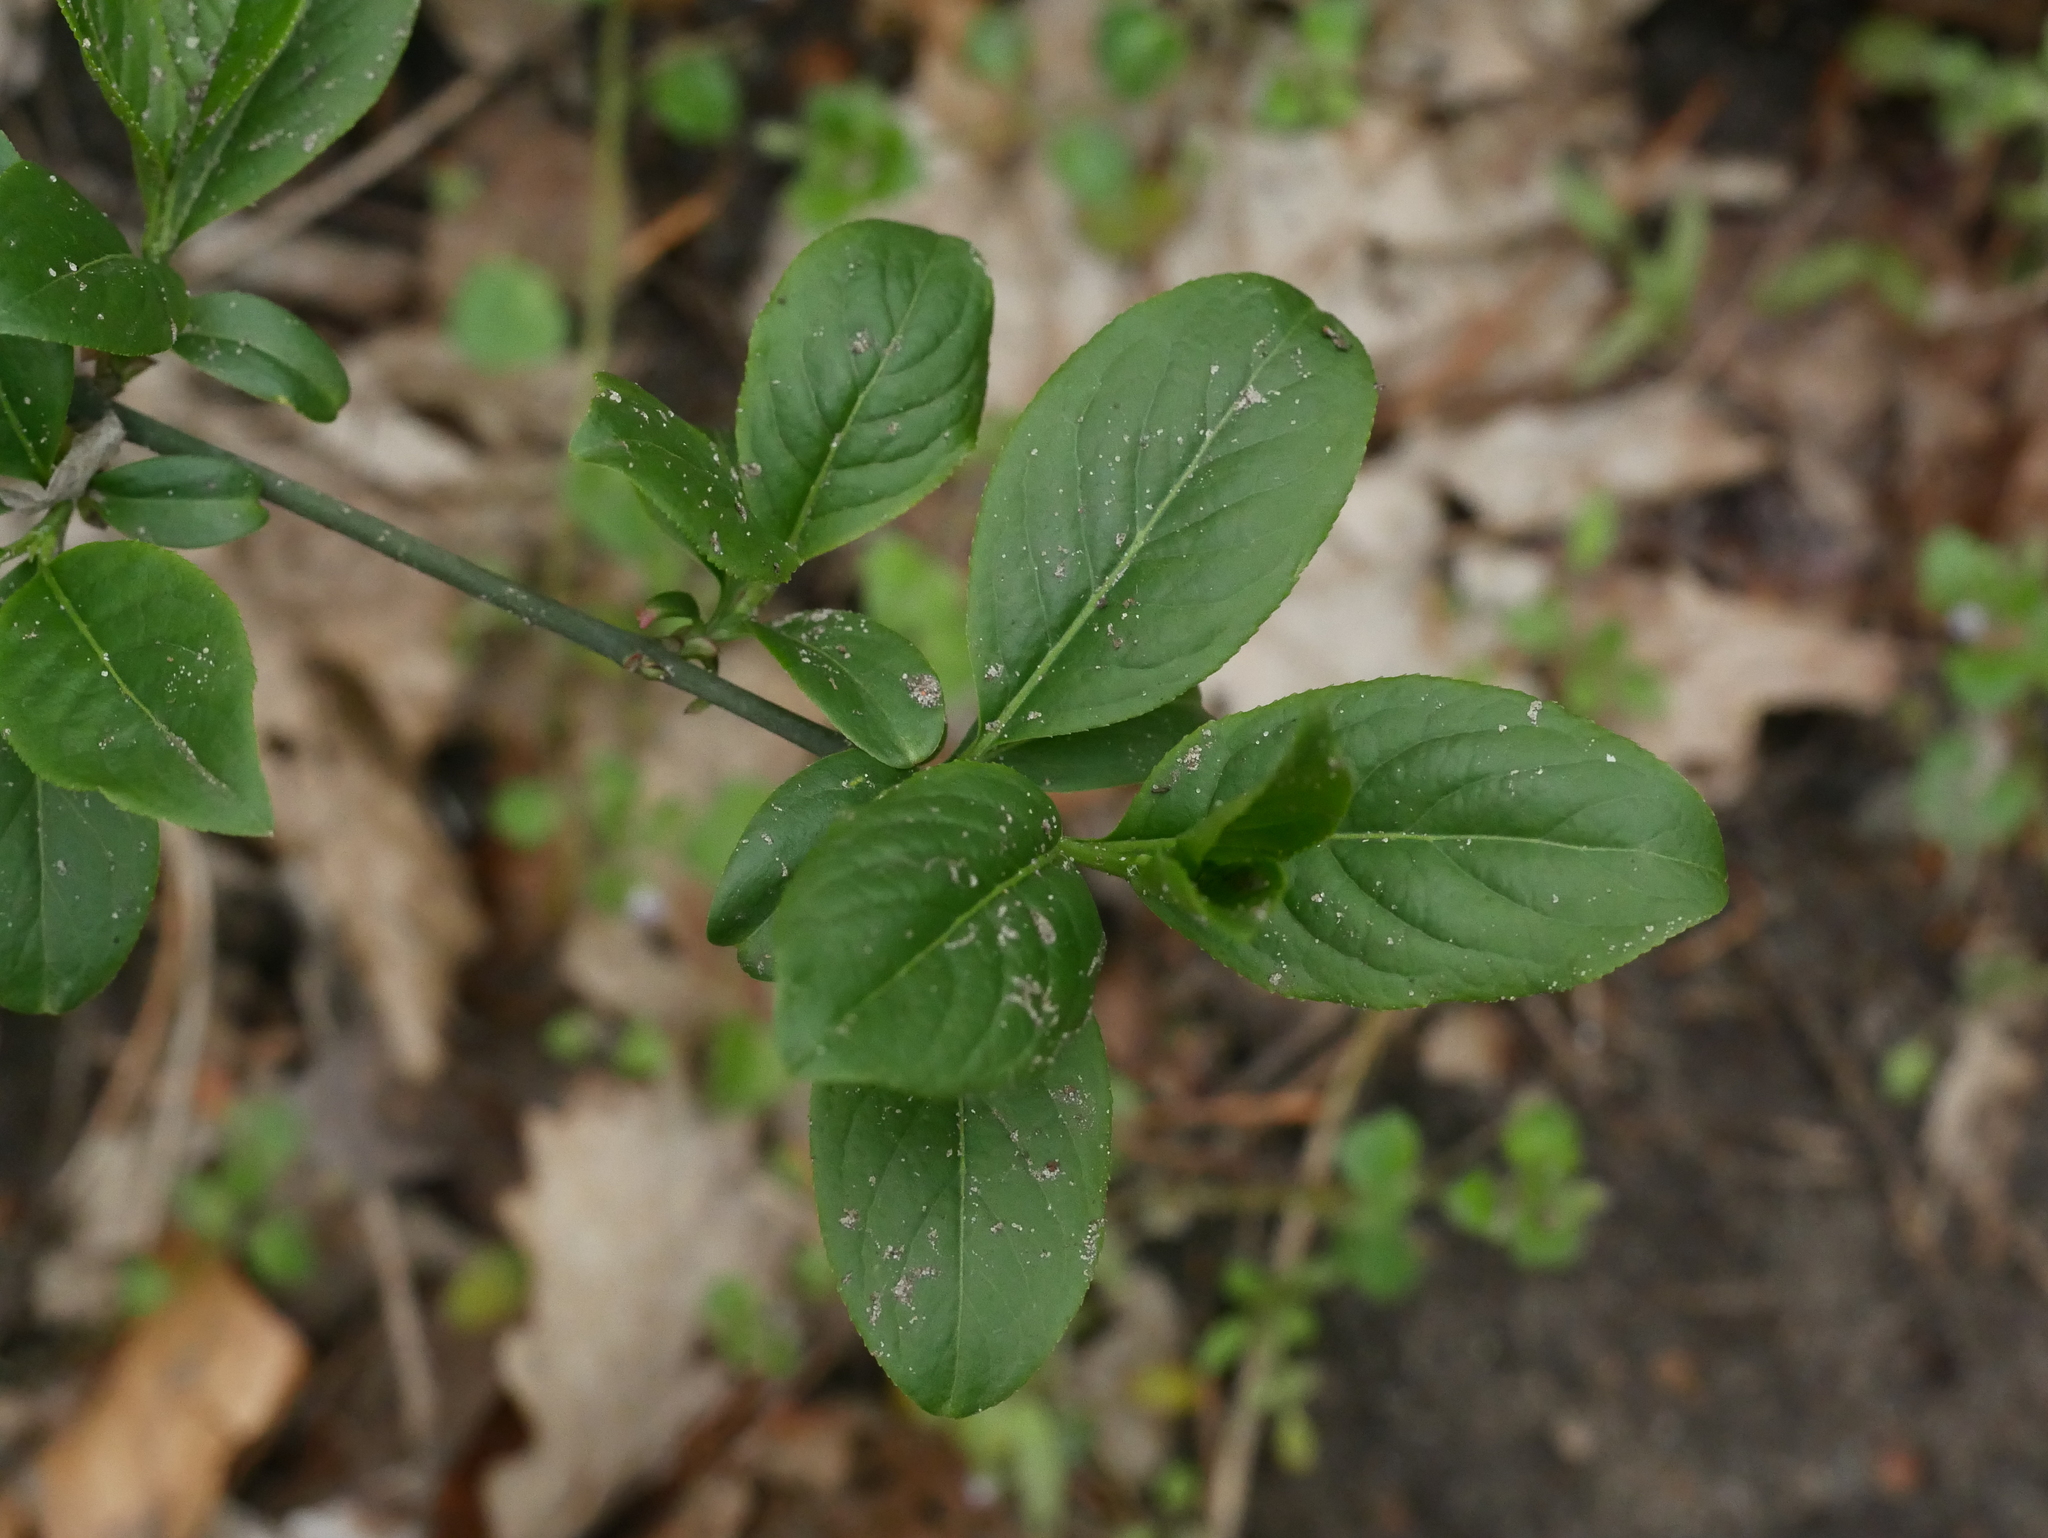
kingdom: Plantae
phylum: Tracheophyta
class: Magnoliopsida
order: Celastrales
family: Celastraceae
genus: Euonymus
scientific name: Euonymus europaeus
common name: Spindle
